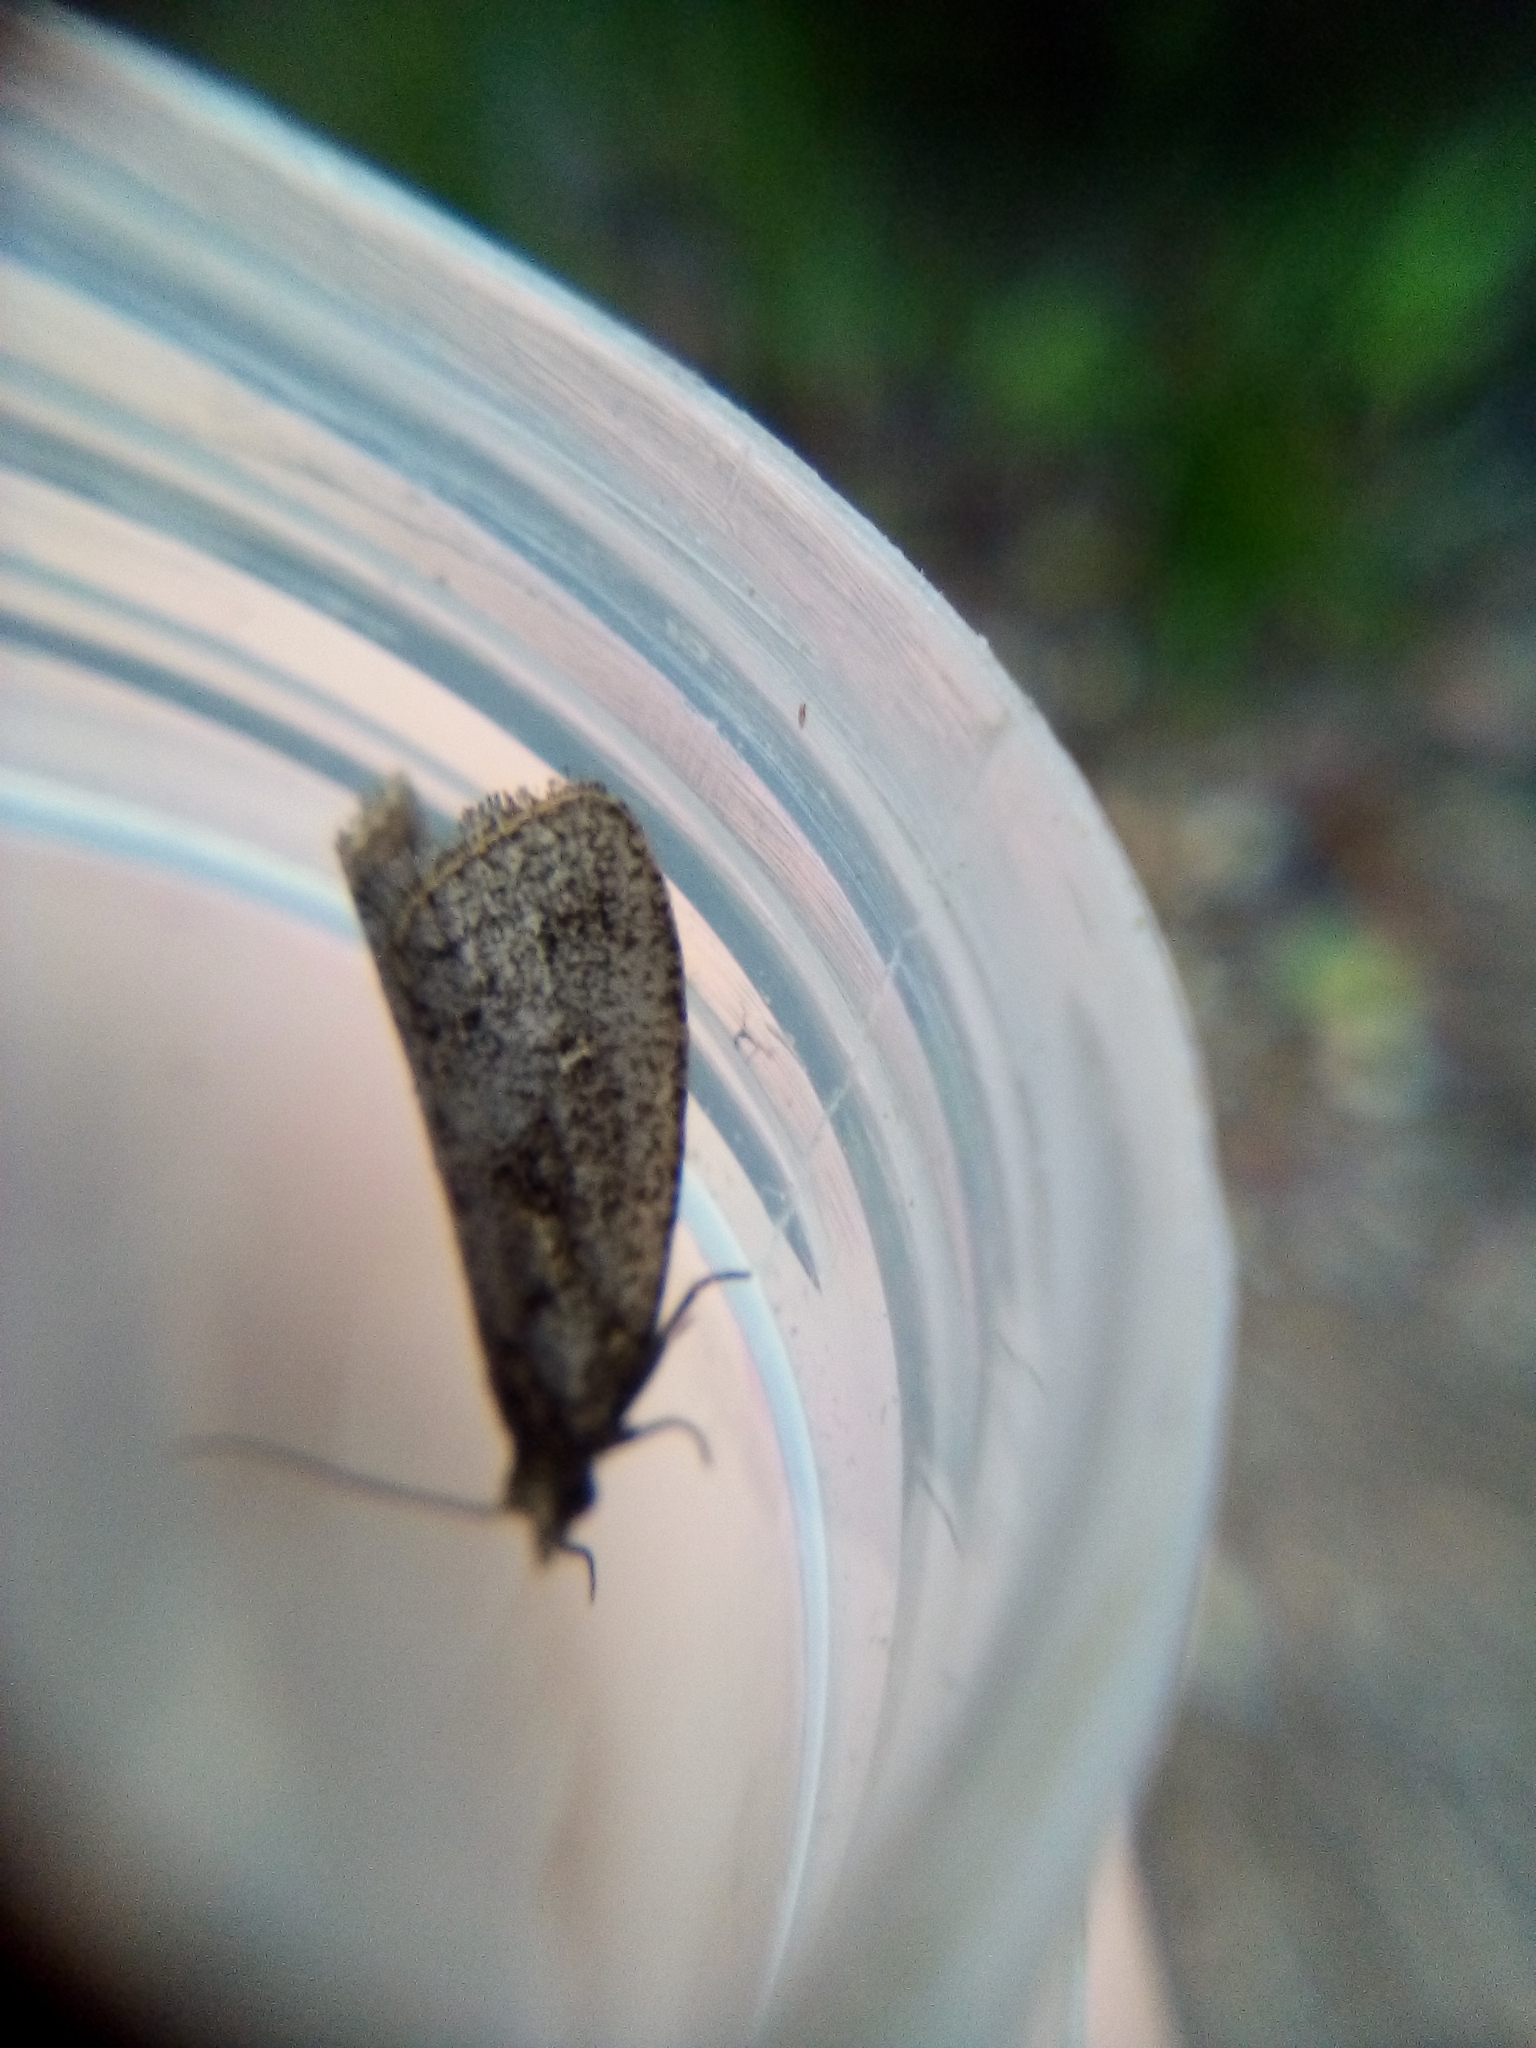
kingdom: Animalia
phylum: Arthropoda
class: Insecta
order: Lepidoptera
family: Tortricidae
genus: Cryptaspasma
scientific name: Cryptaspasma querula
